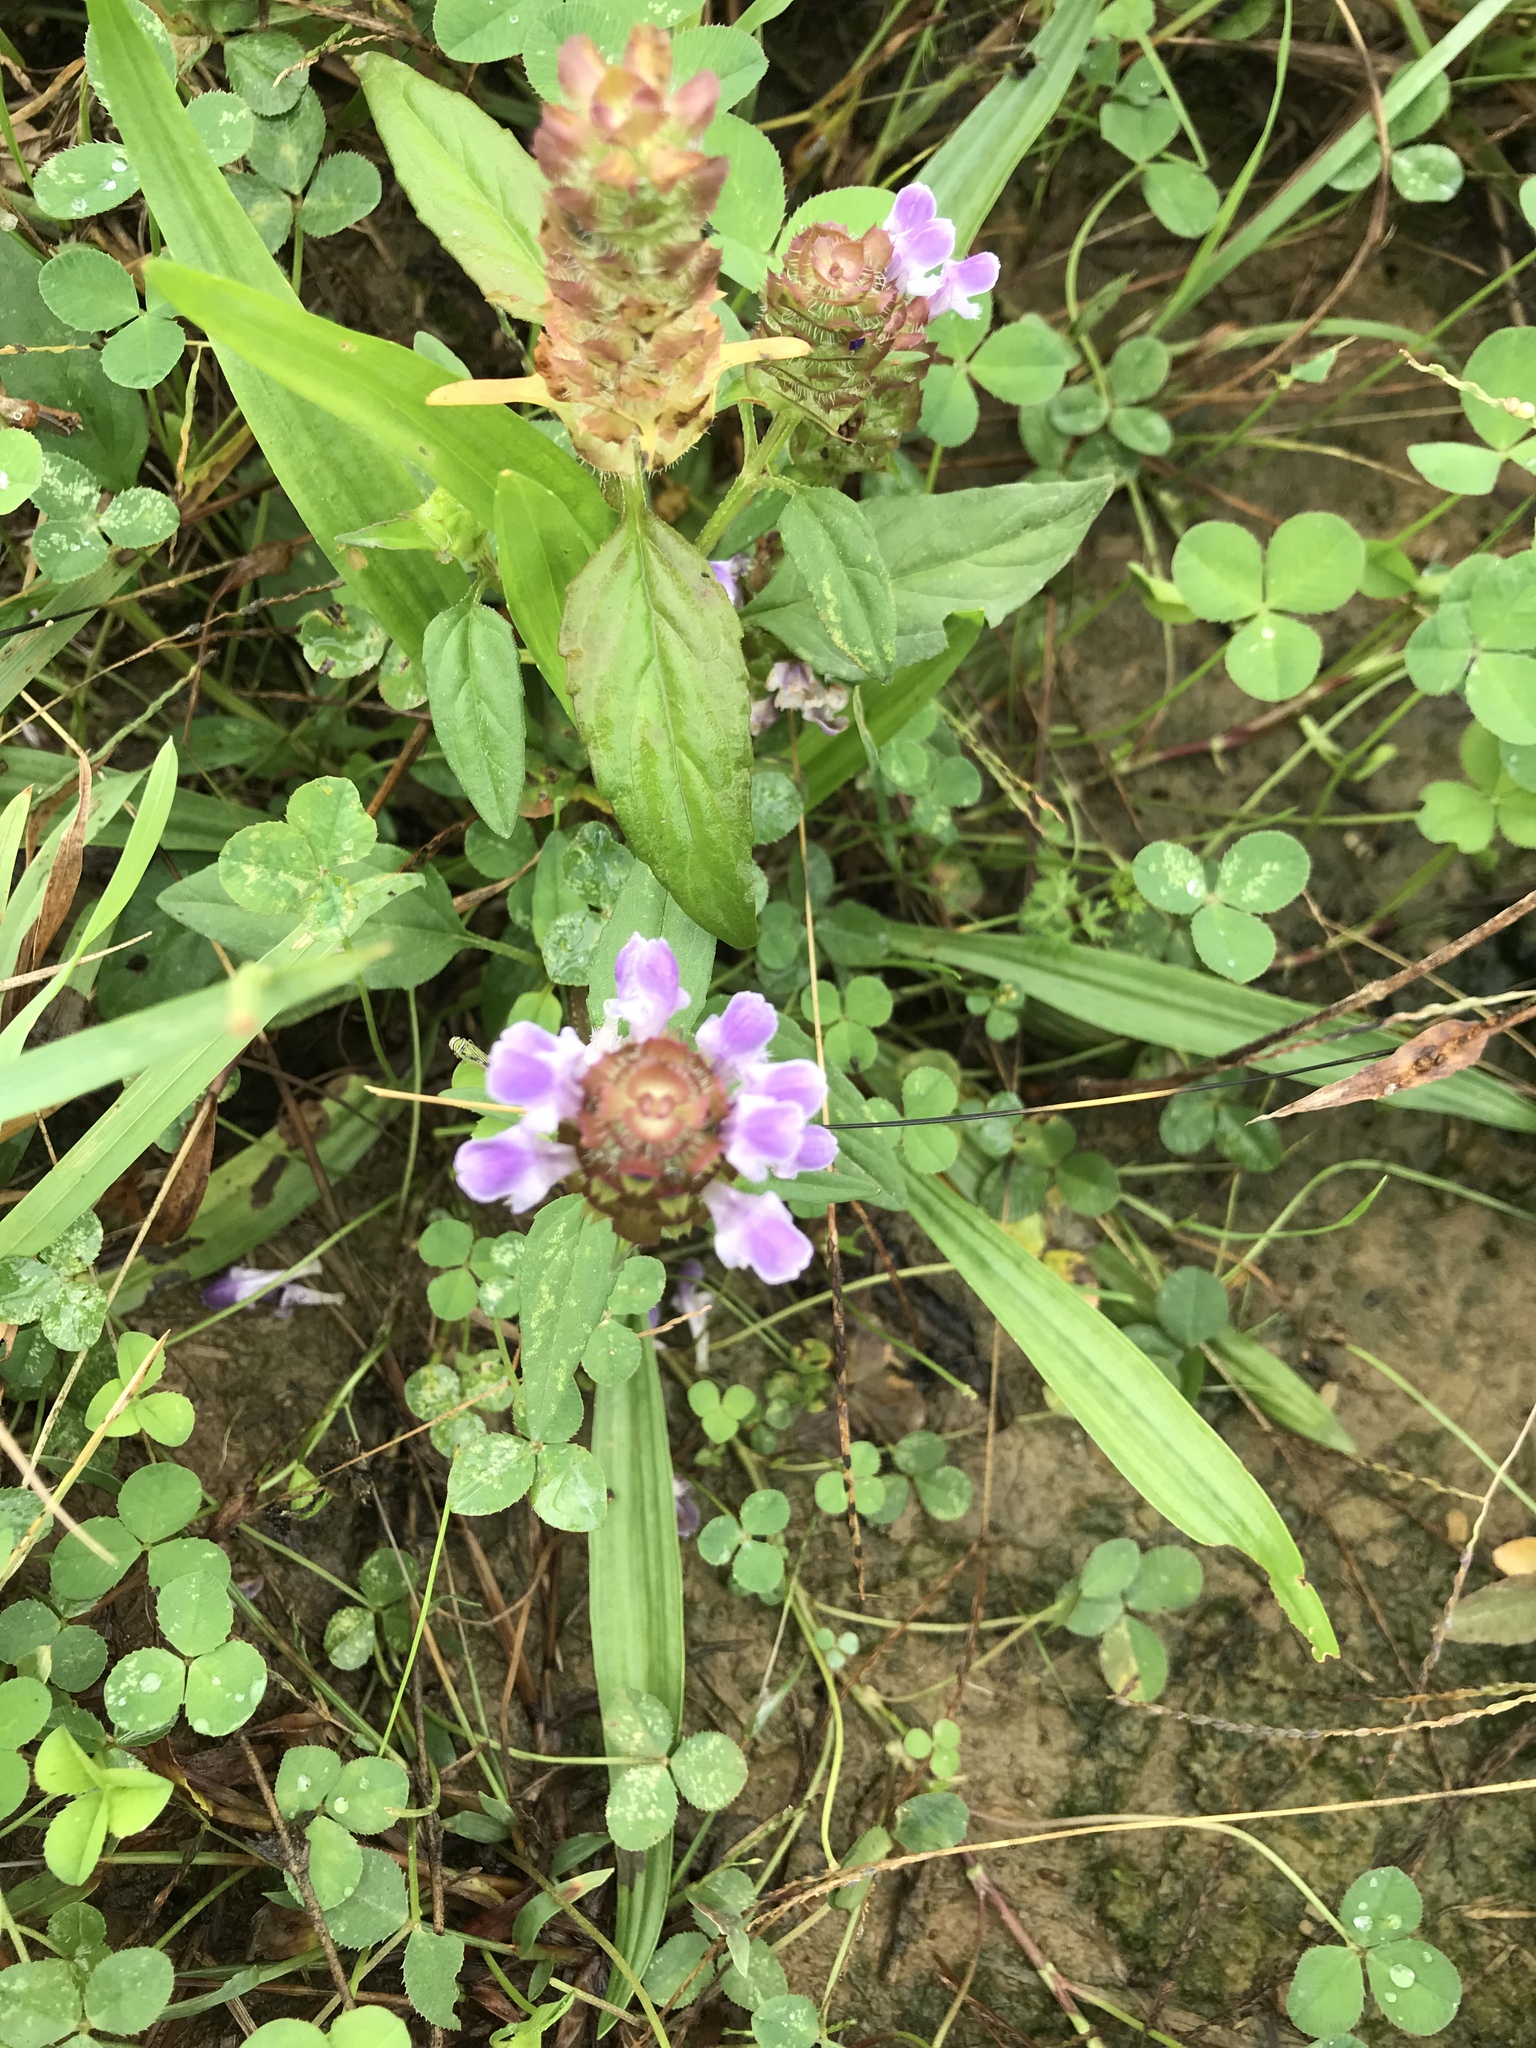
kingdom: Plantae
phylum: Tracheophyta
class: Magnoliopsida
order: Lamiales
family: Lamiaceae
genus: Prunella
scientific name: Prunella vulgaris
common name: Heal-all
